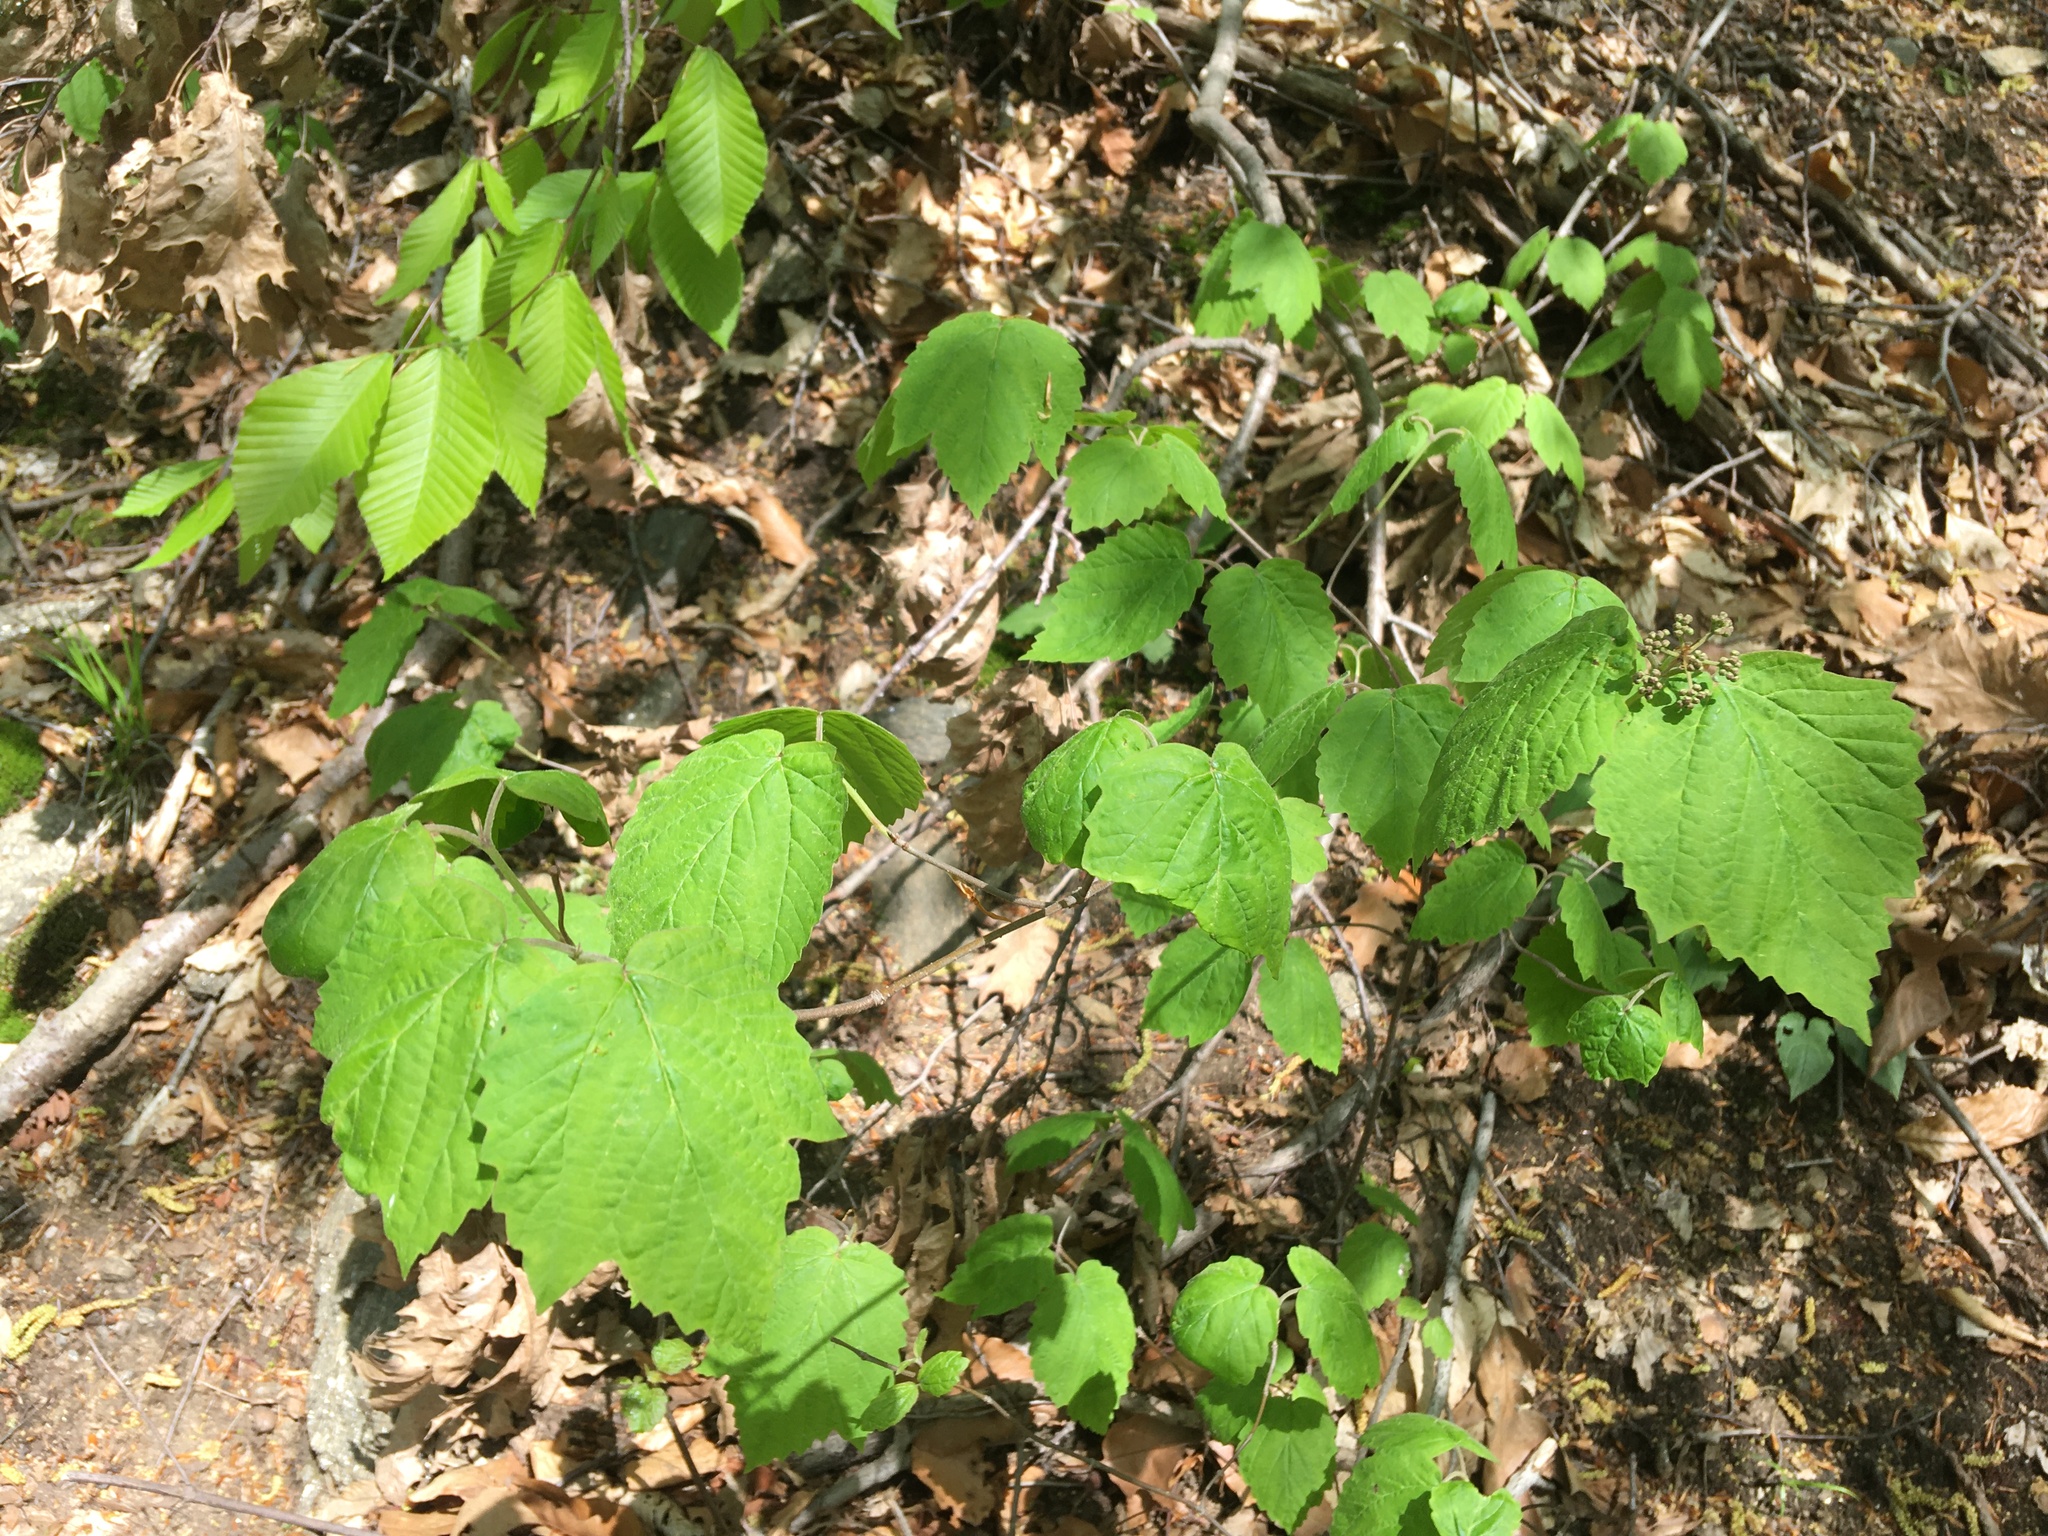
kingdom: Plantae
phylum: Tracheophyta
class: Magnoliopsida
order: Dipsacales
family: Viburnaceae
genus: Viburnum
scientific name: Viburnum acerifolium
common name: Dockmackie
